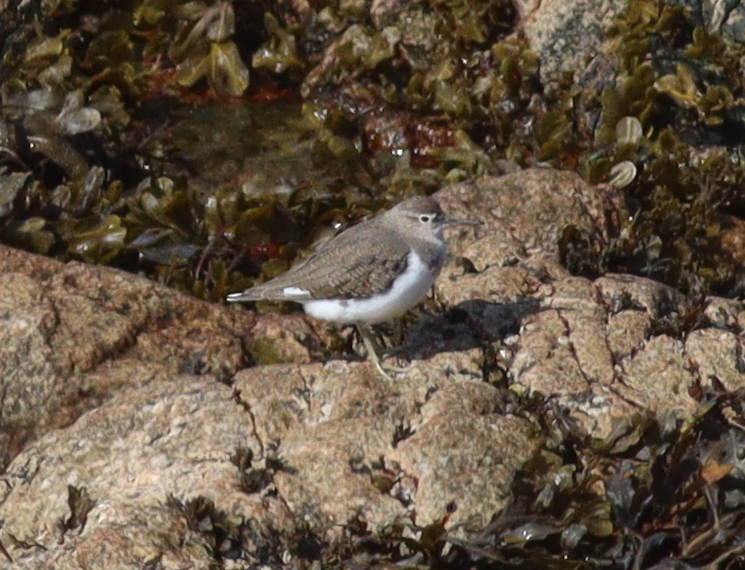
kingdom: Animalia
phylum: Chordata
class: Aves
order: Charadriiformes
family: Scolopacidae
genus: Actitis
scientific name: Actitis hypoleucos
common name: Common sandpiper
